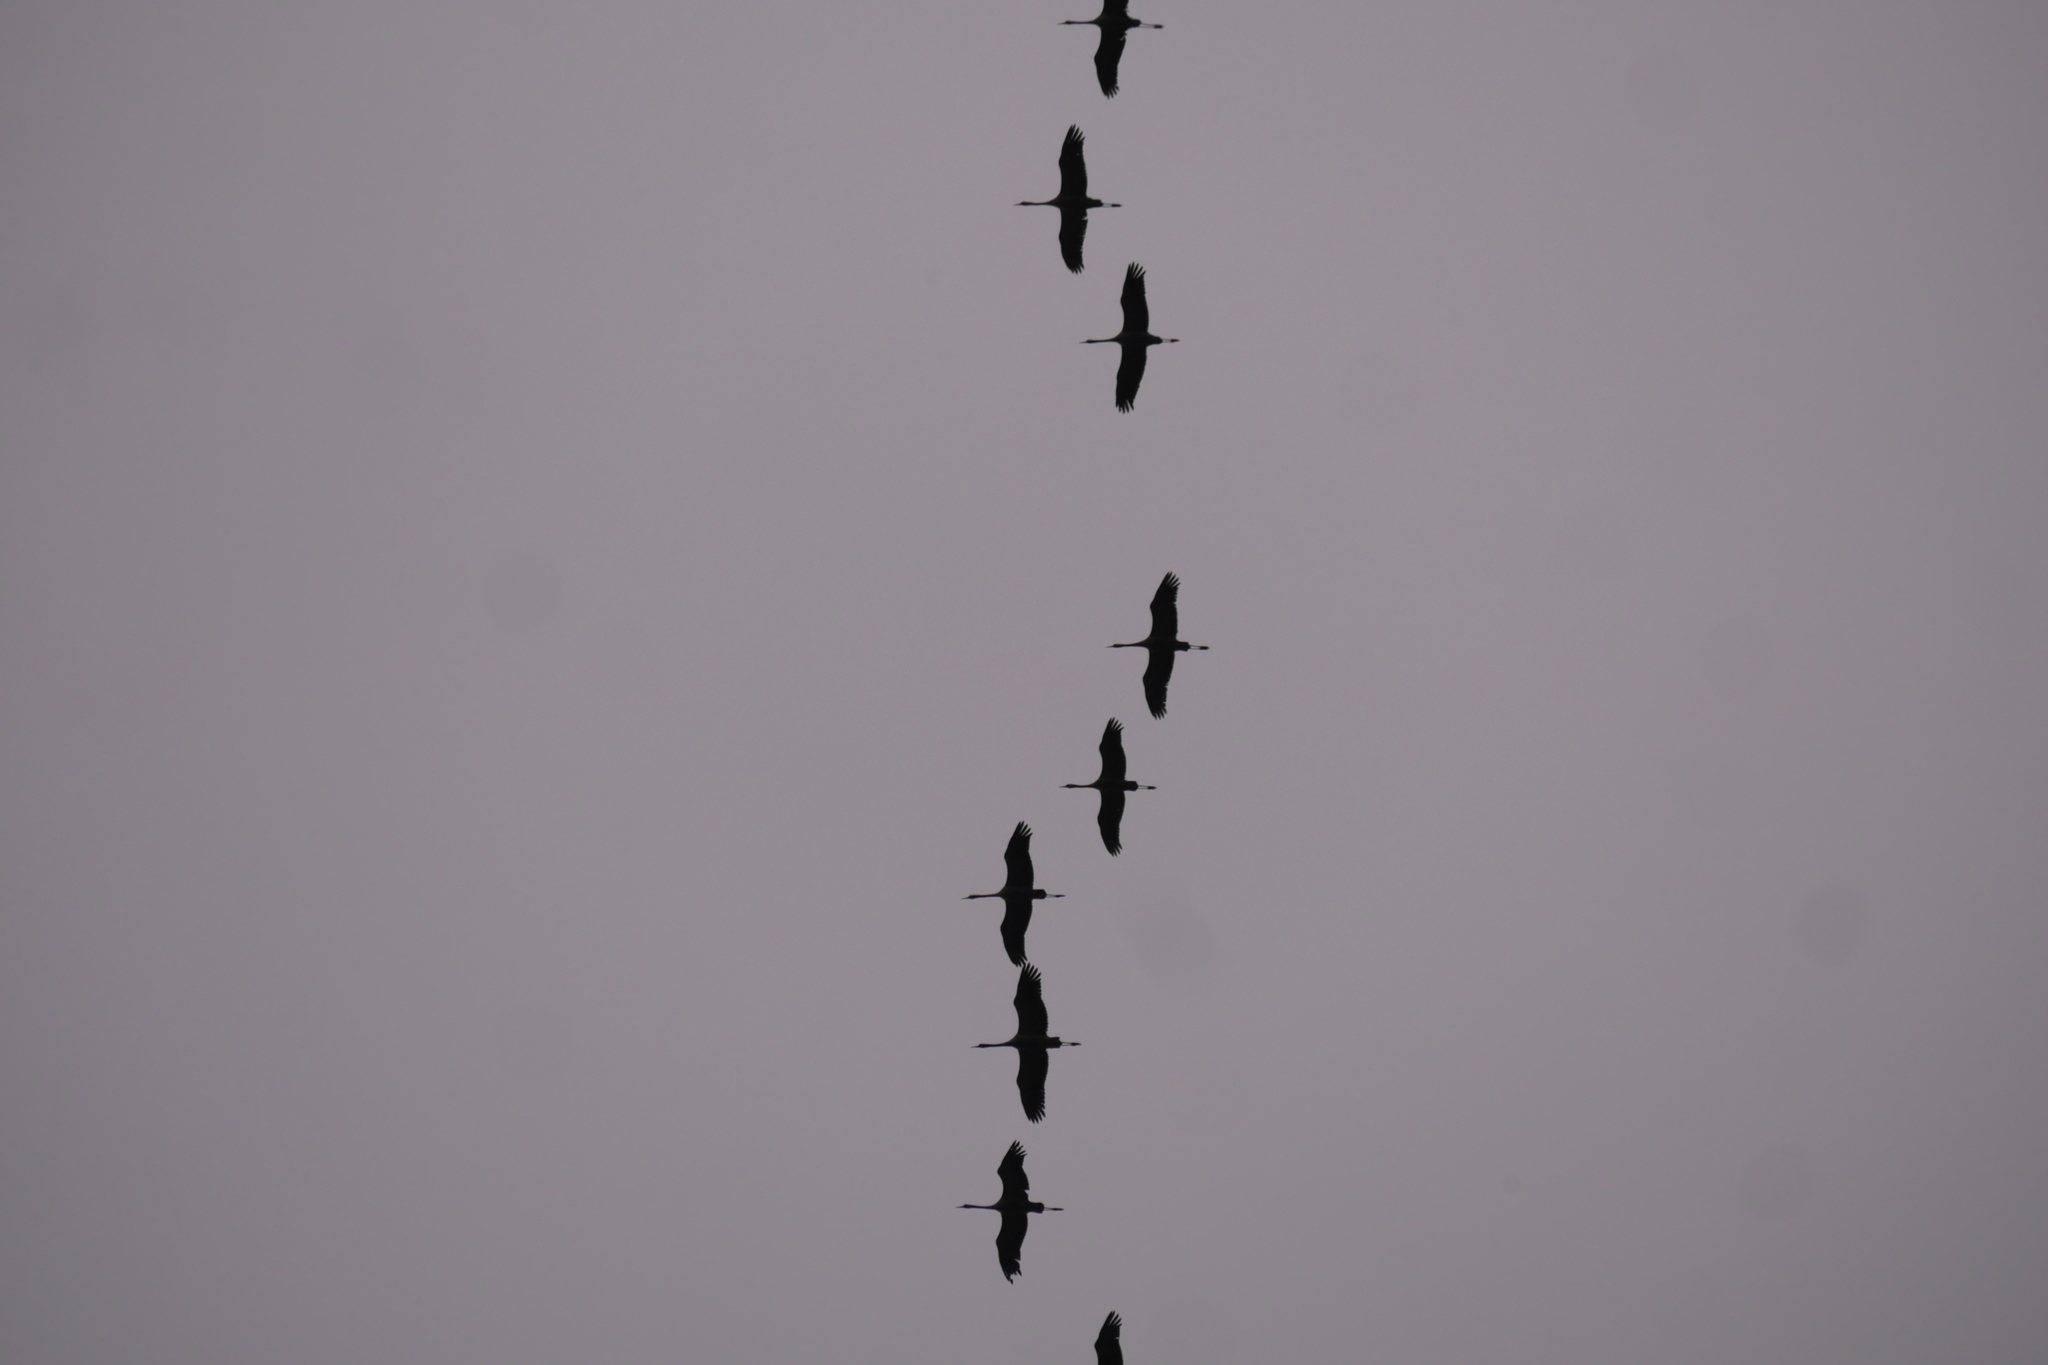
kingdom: Animalia
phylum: Chordata
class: Aves
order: Gruiformes
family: Gruidae
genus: Grus
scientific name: Grus grus
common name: Common crane
